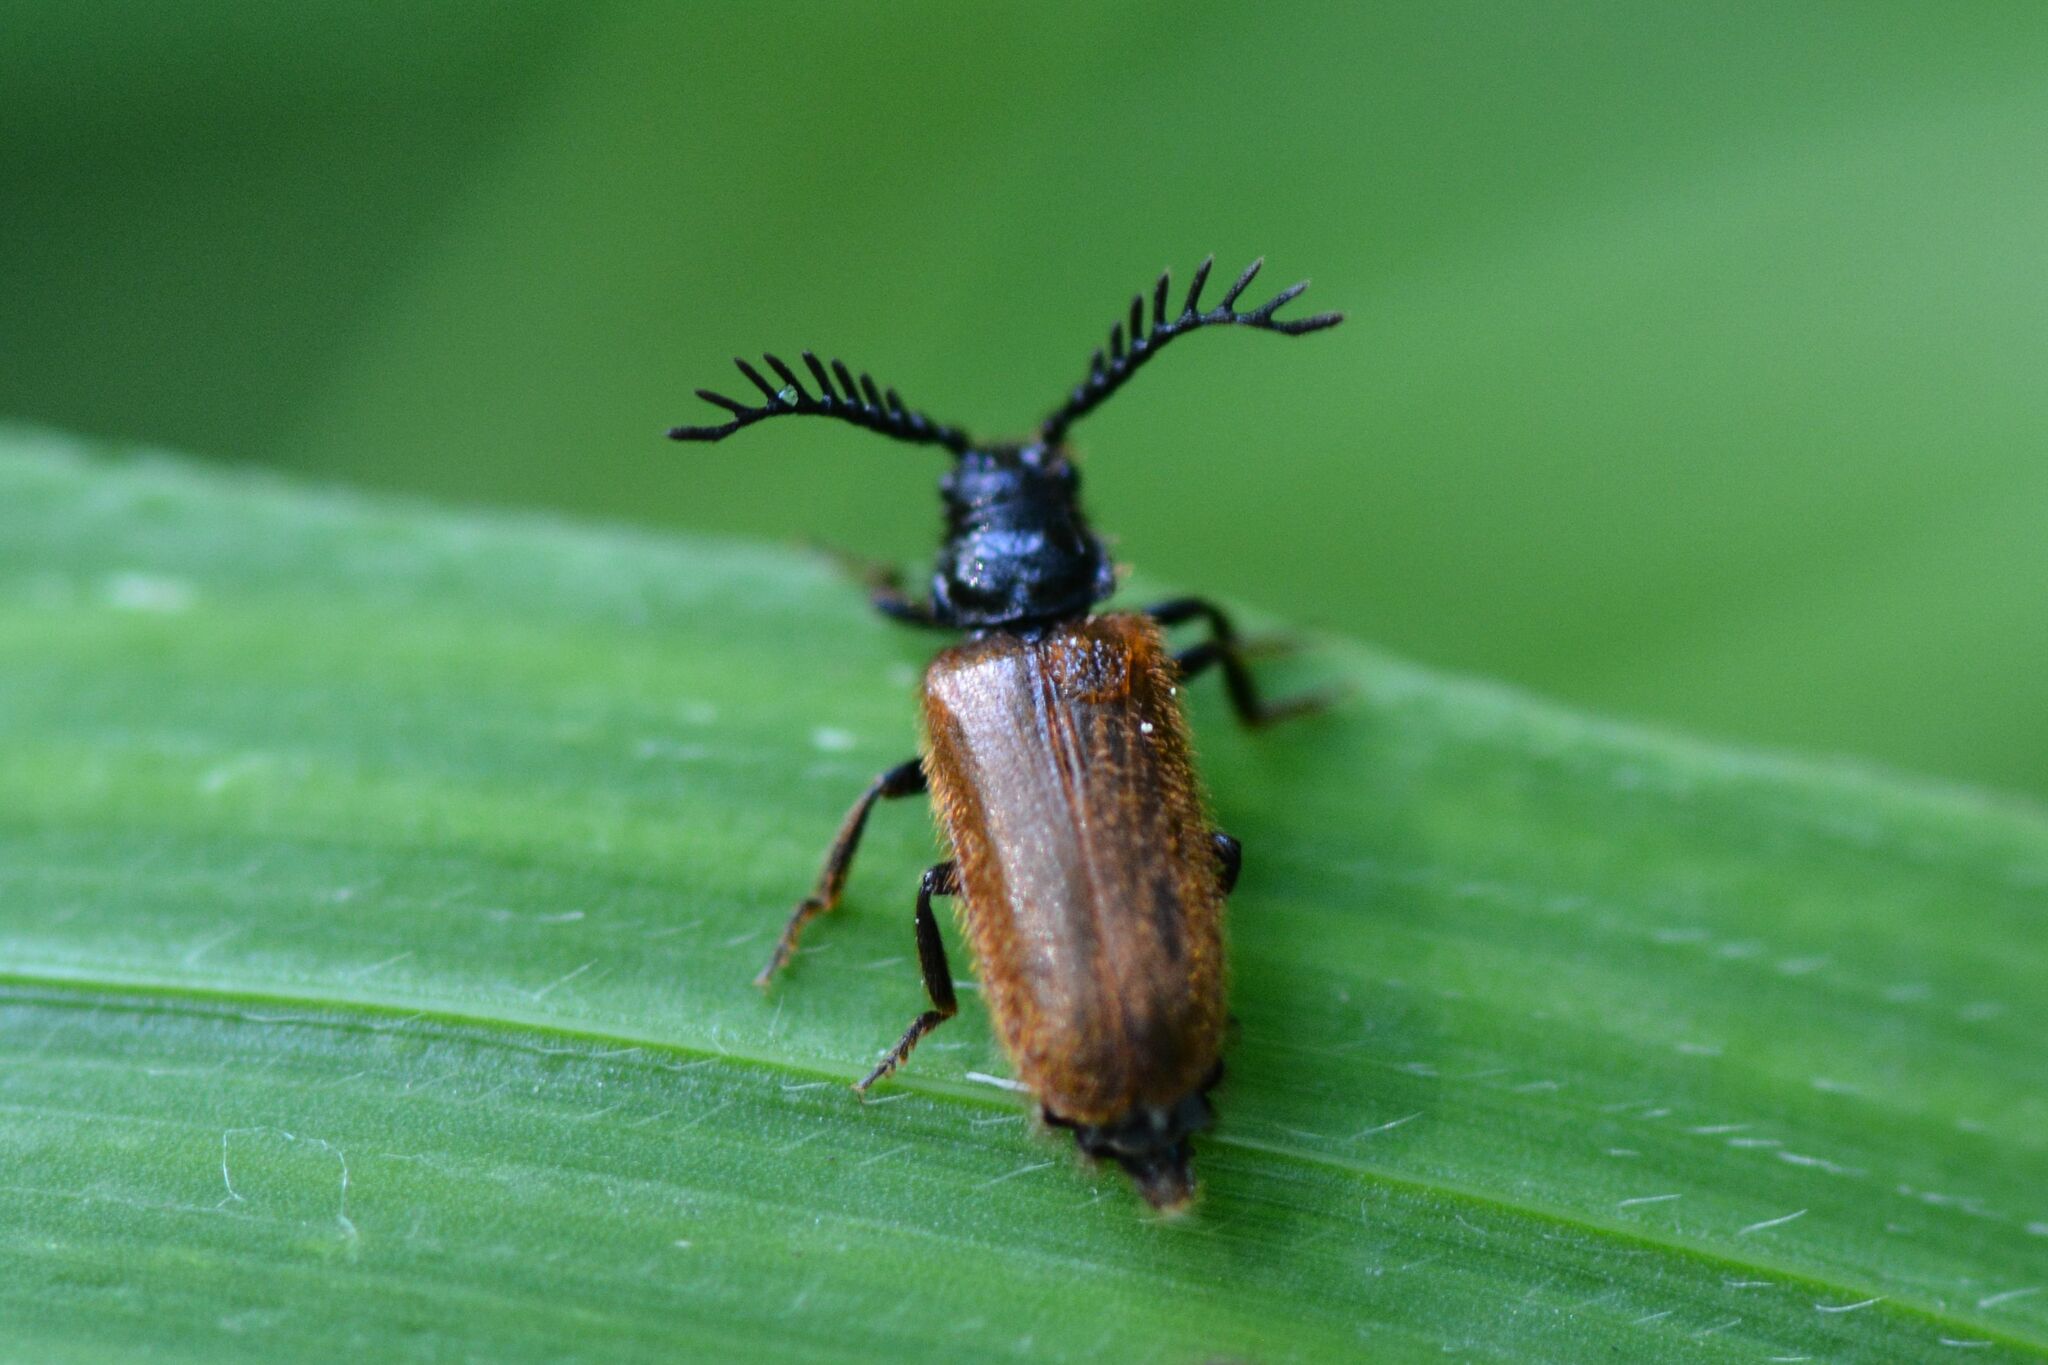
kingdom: Animalia
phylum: Arthropoda
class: Insecta
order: Coleoptera
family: Drilidae
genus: Drilus
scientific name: Drilus flavescens
